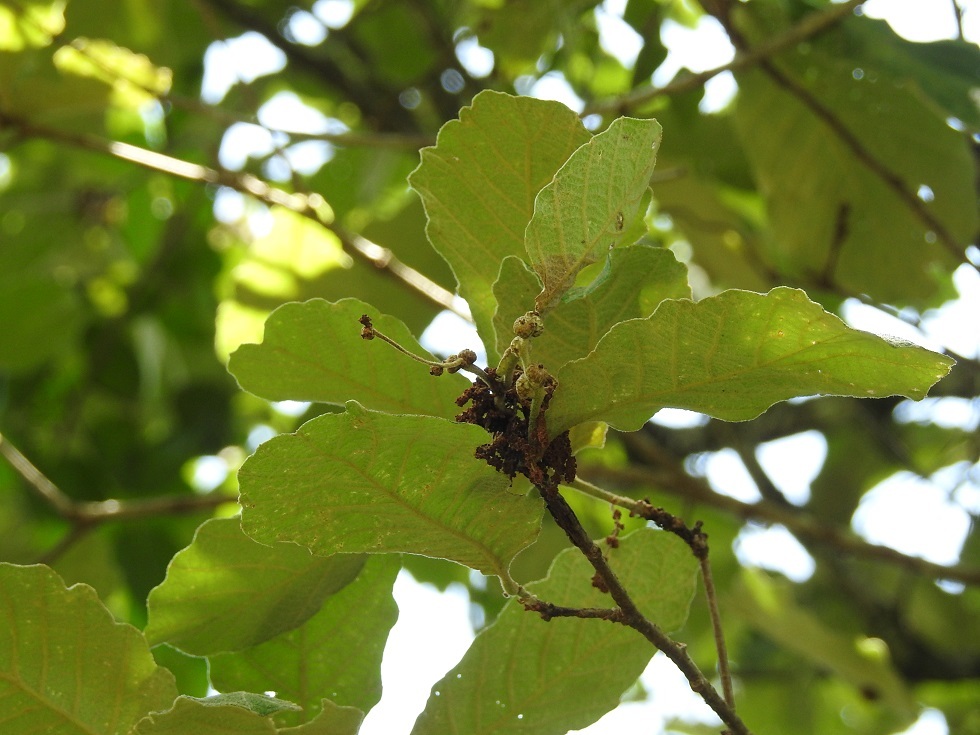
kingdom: Plantae
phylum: Tracheophyta
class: Magnoliopsida
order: Fagales
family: Fagaceae
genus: Quercus
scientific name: Quercus peduncularis
